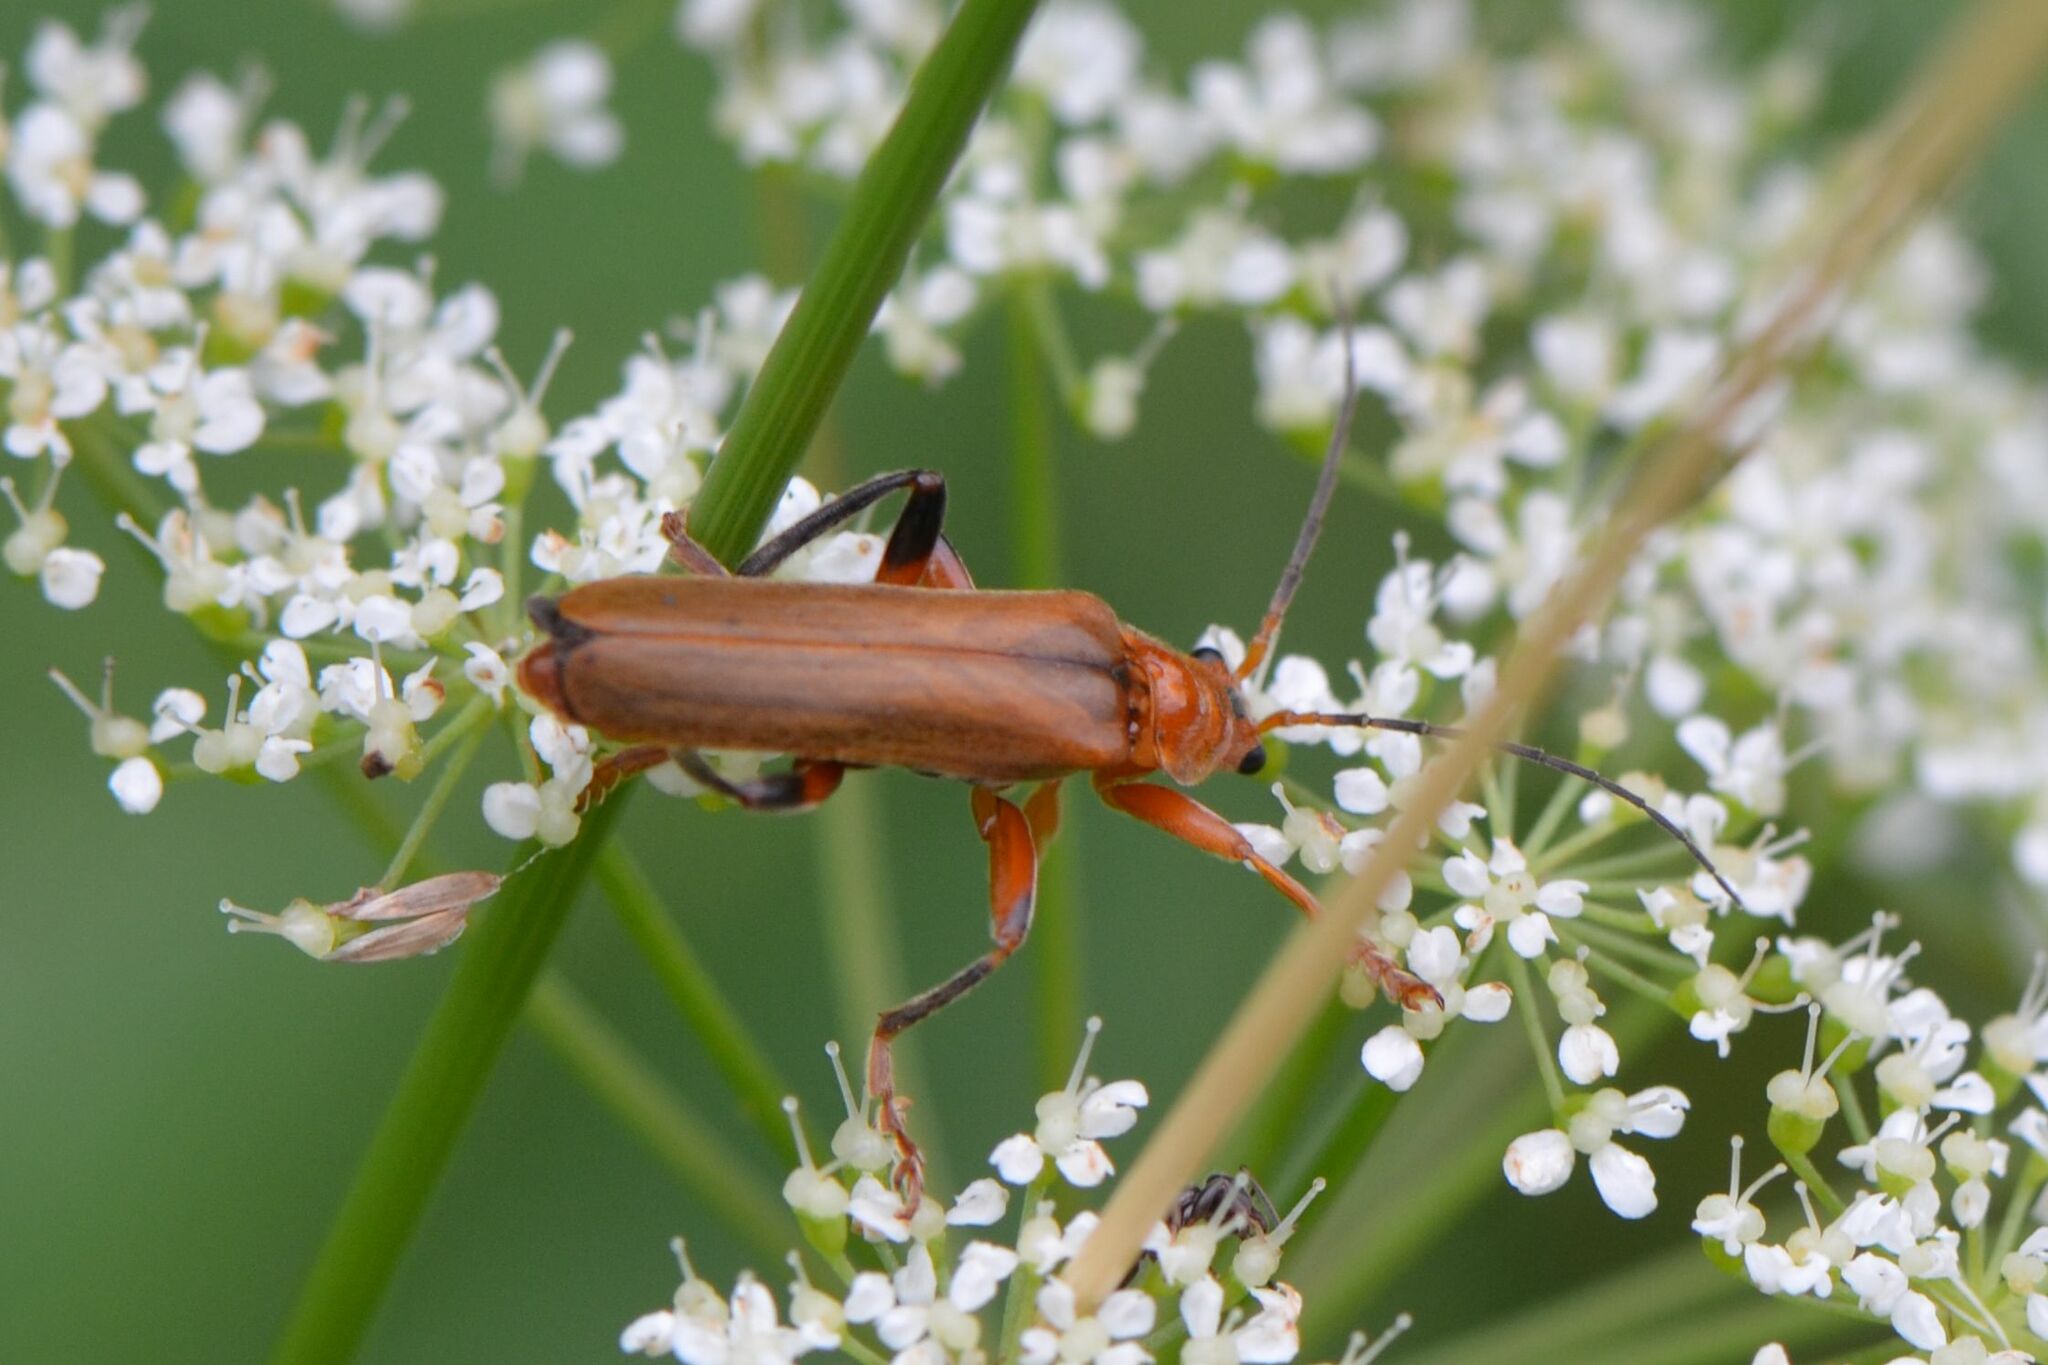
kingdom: Animalia
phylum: Arthropoda
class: Insecta
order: Coleoptera
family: Cantharidae
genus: Cantharis
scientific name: Cantharis livida
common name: Livid soldier beetle
